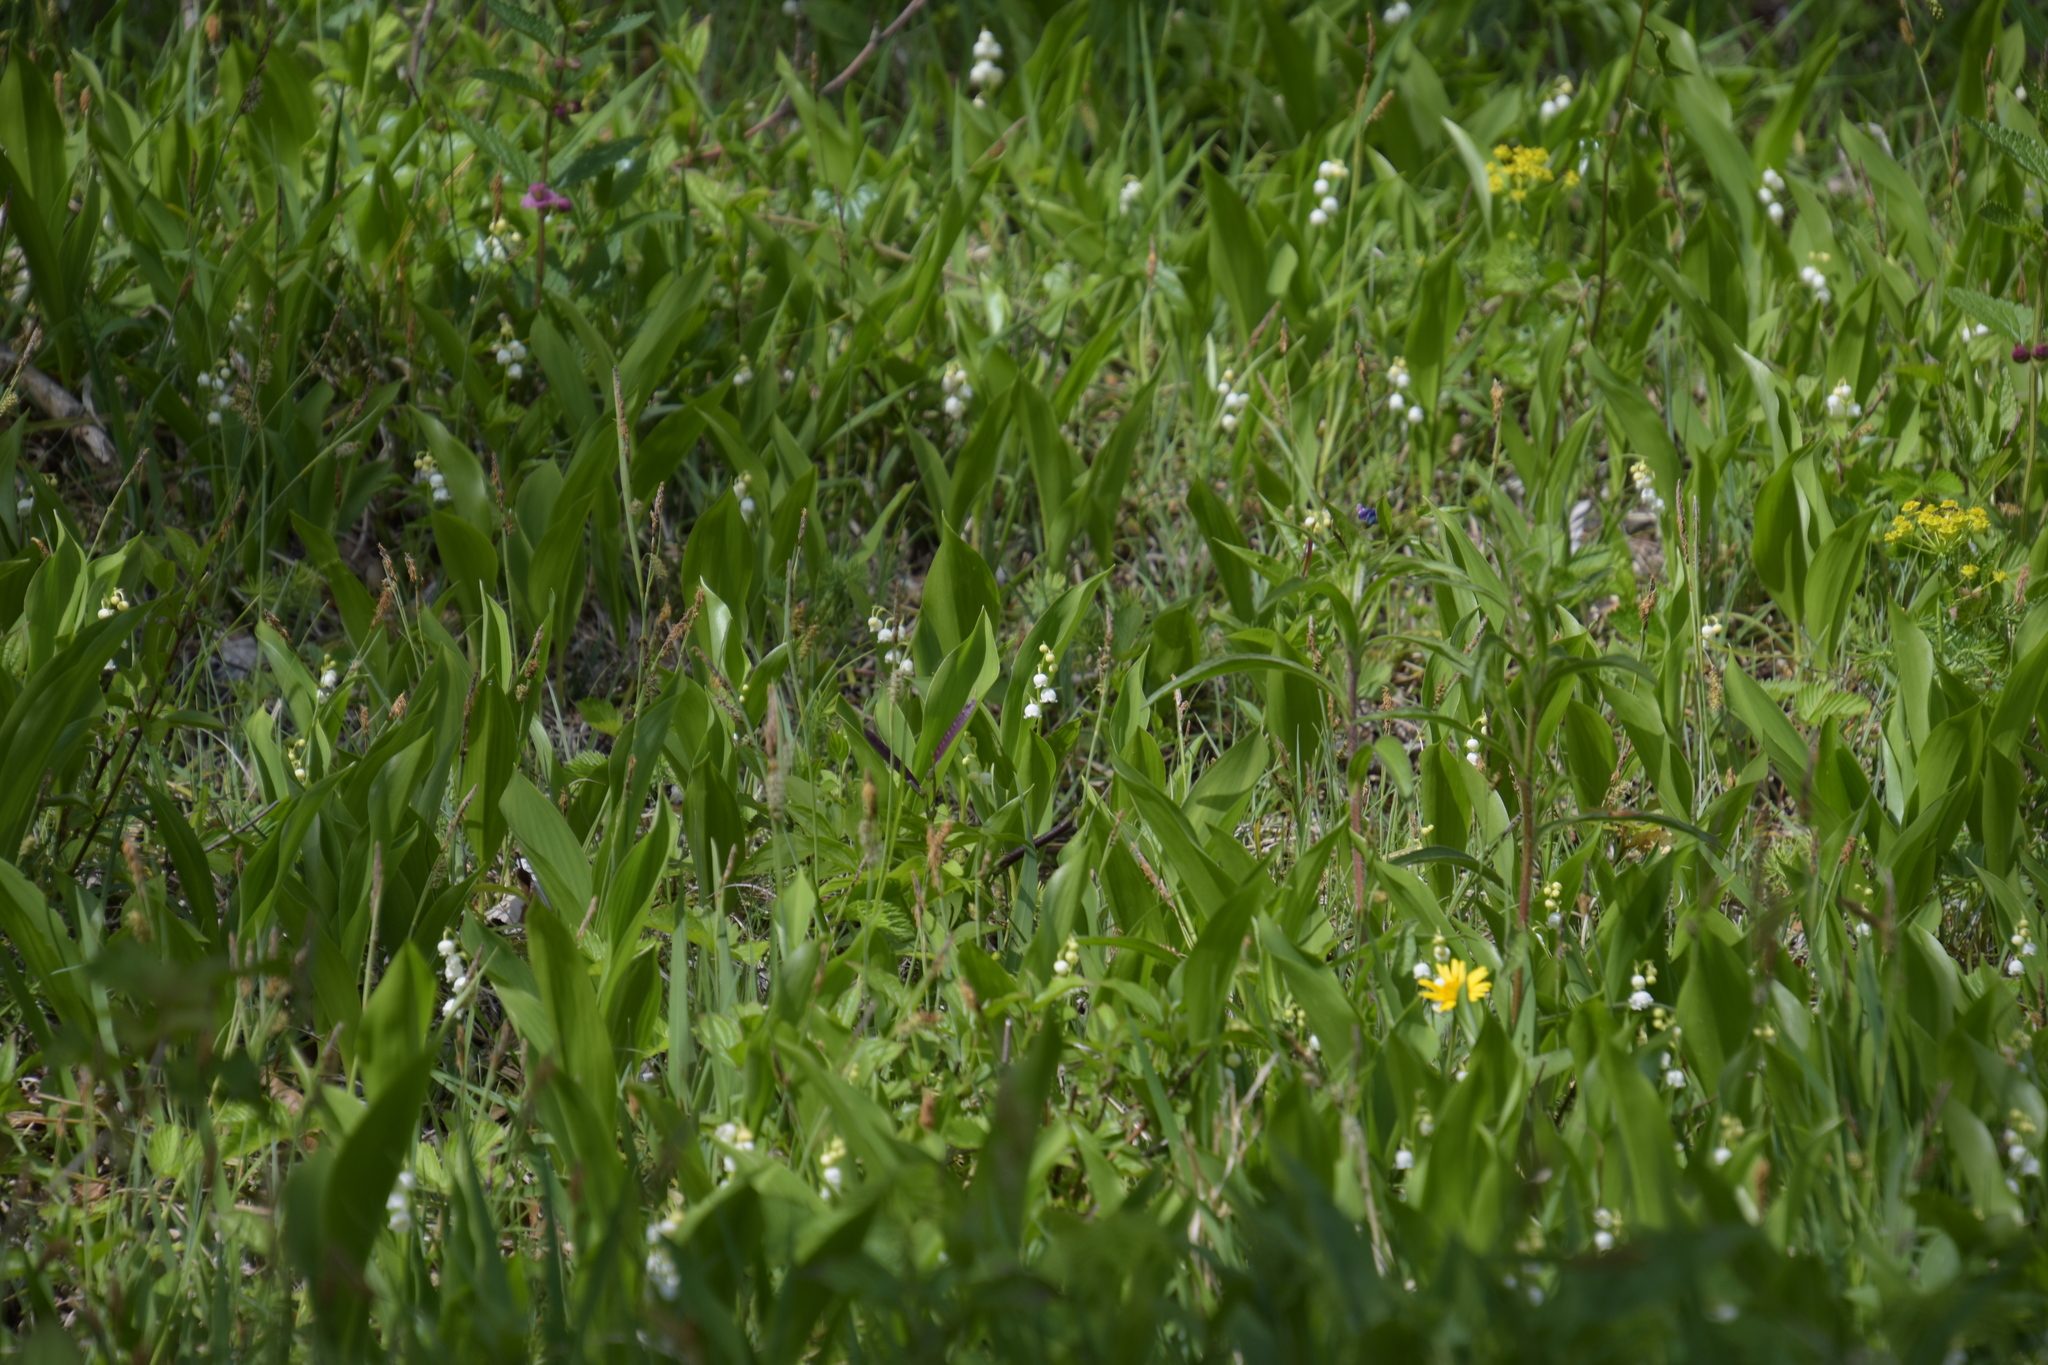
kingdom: Plantae
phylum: Tracheophyta
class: Liliopsida
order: Asparagales
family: Asparagaceae
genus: Convallaria
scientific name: Convallaria majalis
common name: Lily-of-the-valley
